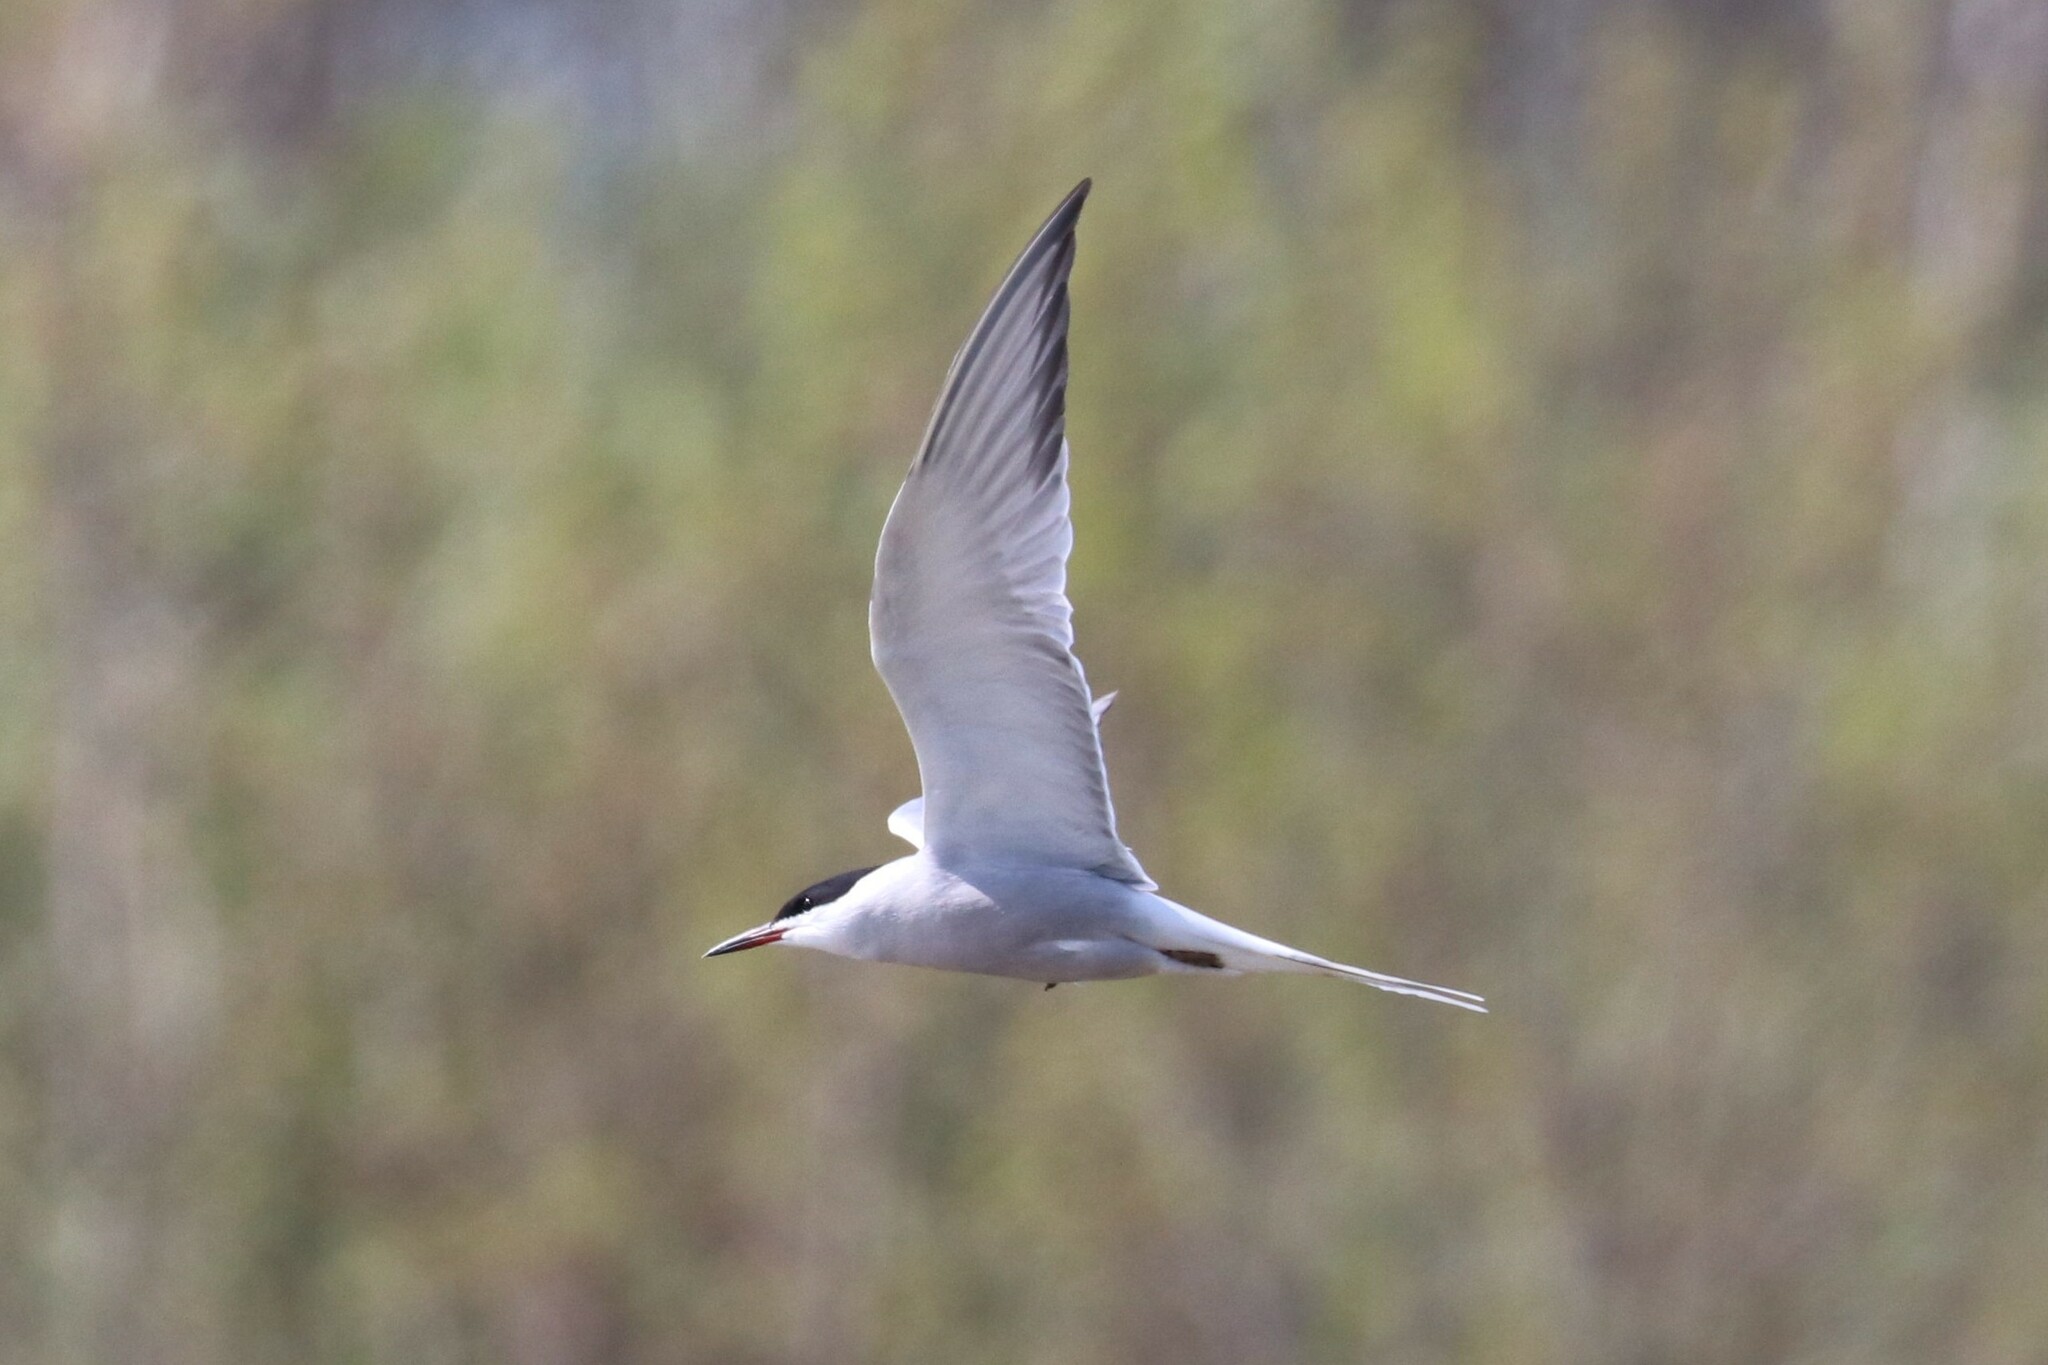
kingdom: Animalia
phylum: Chordata
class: Aves
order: Charadriiformes
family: Laridae
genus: Sterna
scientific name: Sterna hirundo
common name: Common tern
